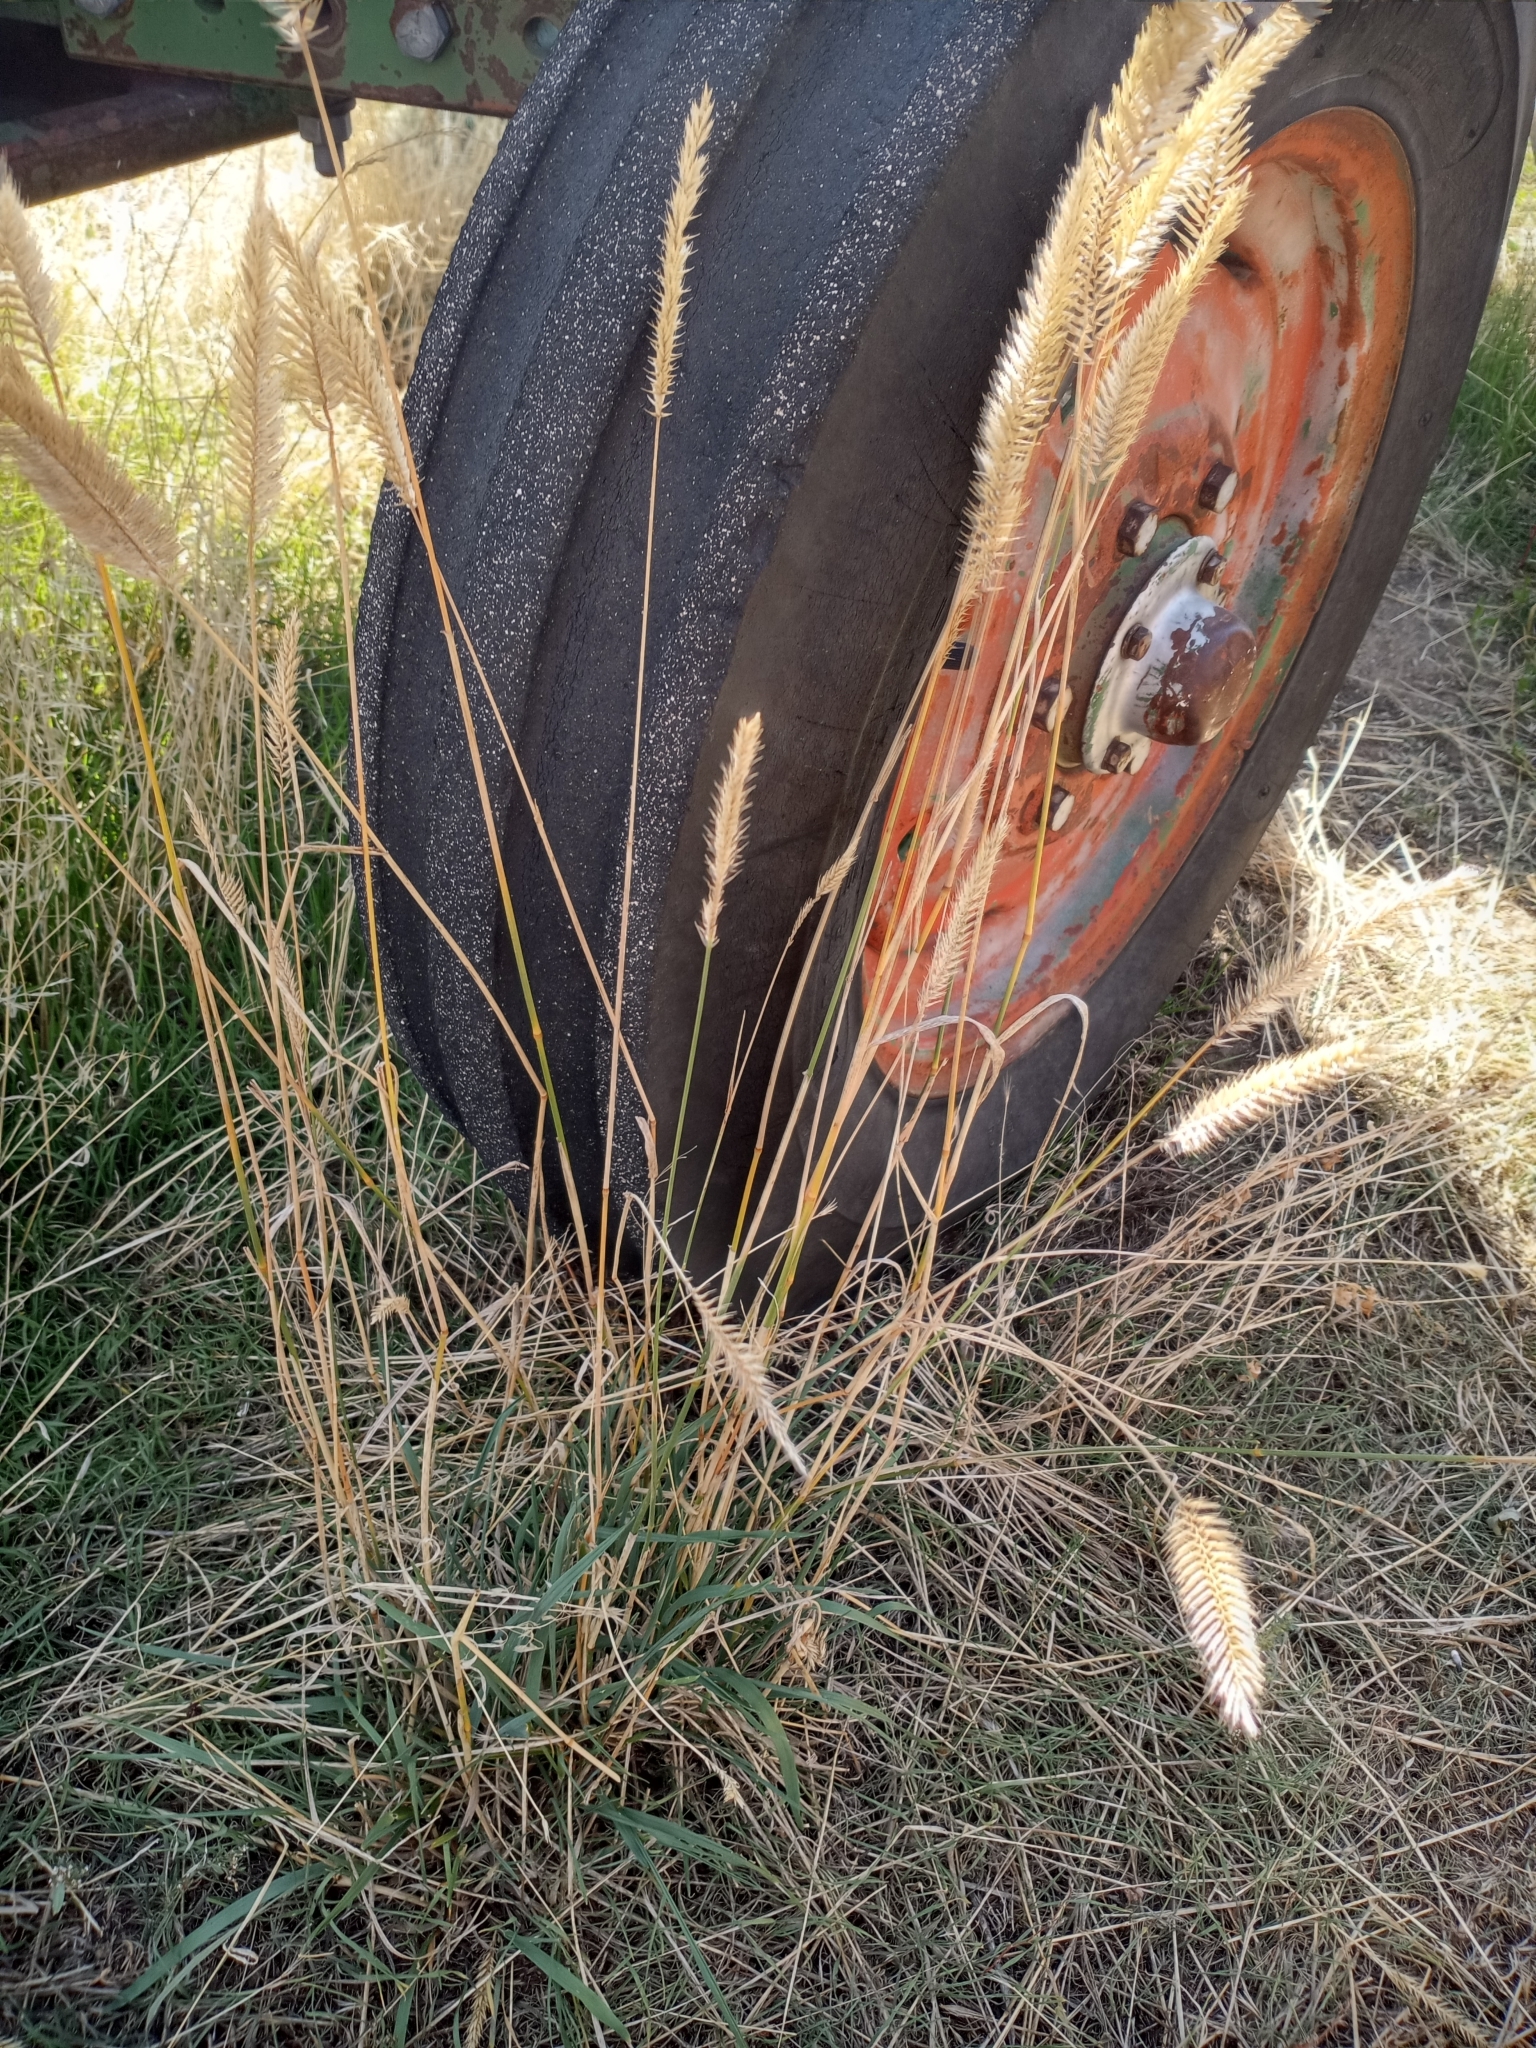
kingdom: Plantae
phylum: Tracheophyta
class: Liliopsida
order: Poales
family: Poaceae
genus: Agropyron
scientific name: Agropyron cristatum
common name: Crested wheatgrass
